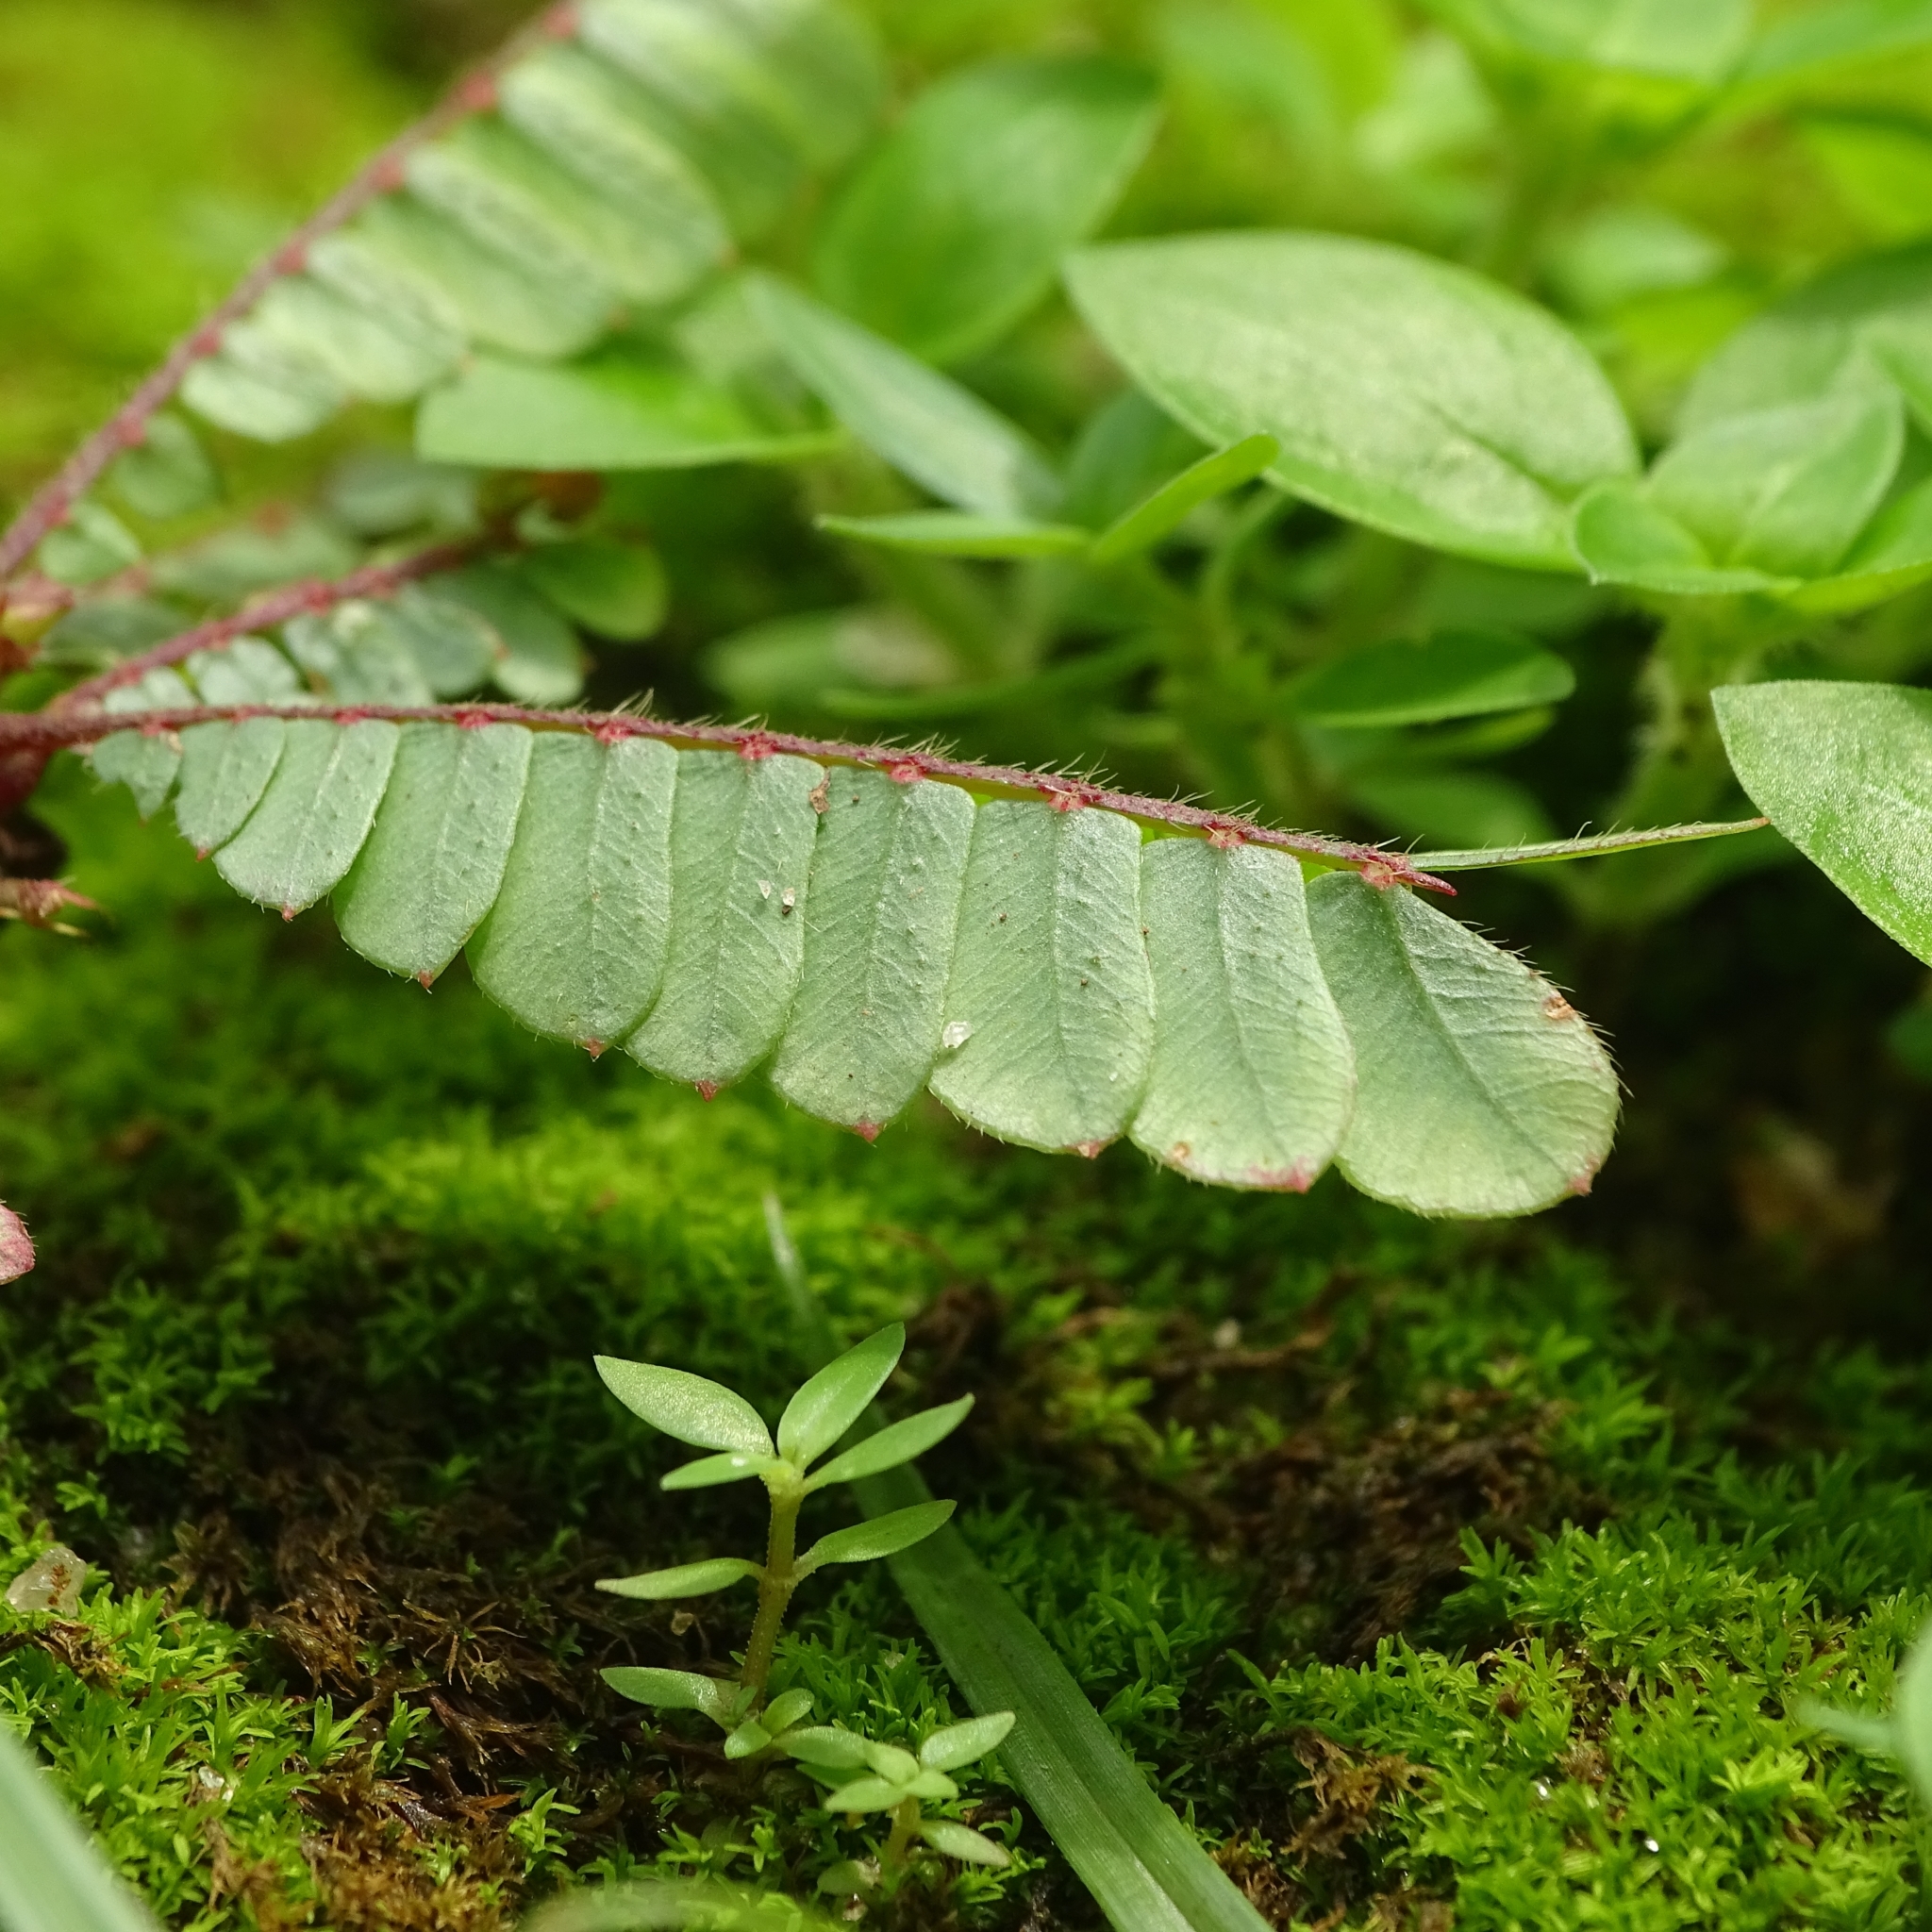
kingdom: Plantae
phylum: Tracheophyta
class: Magnoliopsida
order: Oxalidales
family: Oxalidaceae
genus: Biophytum
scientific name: Biophytum sensitivum
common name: Lifeplant
